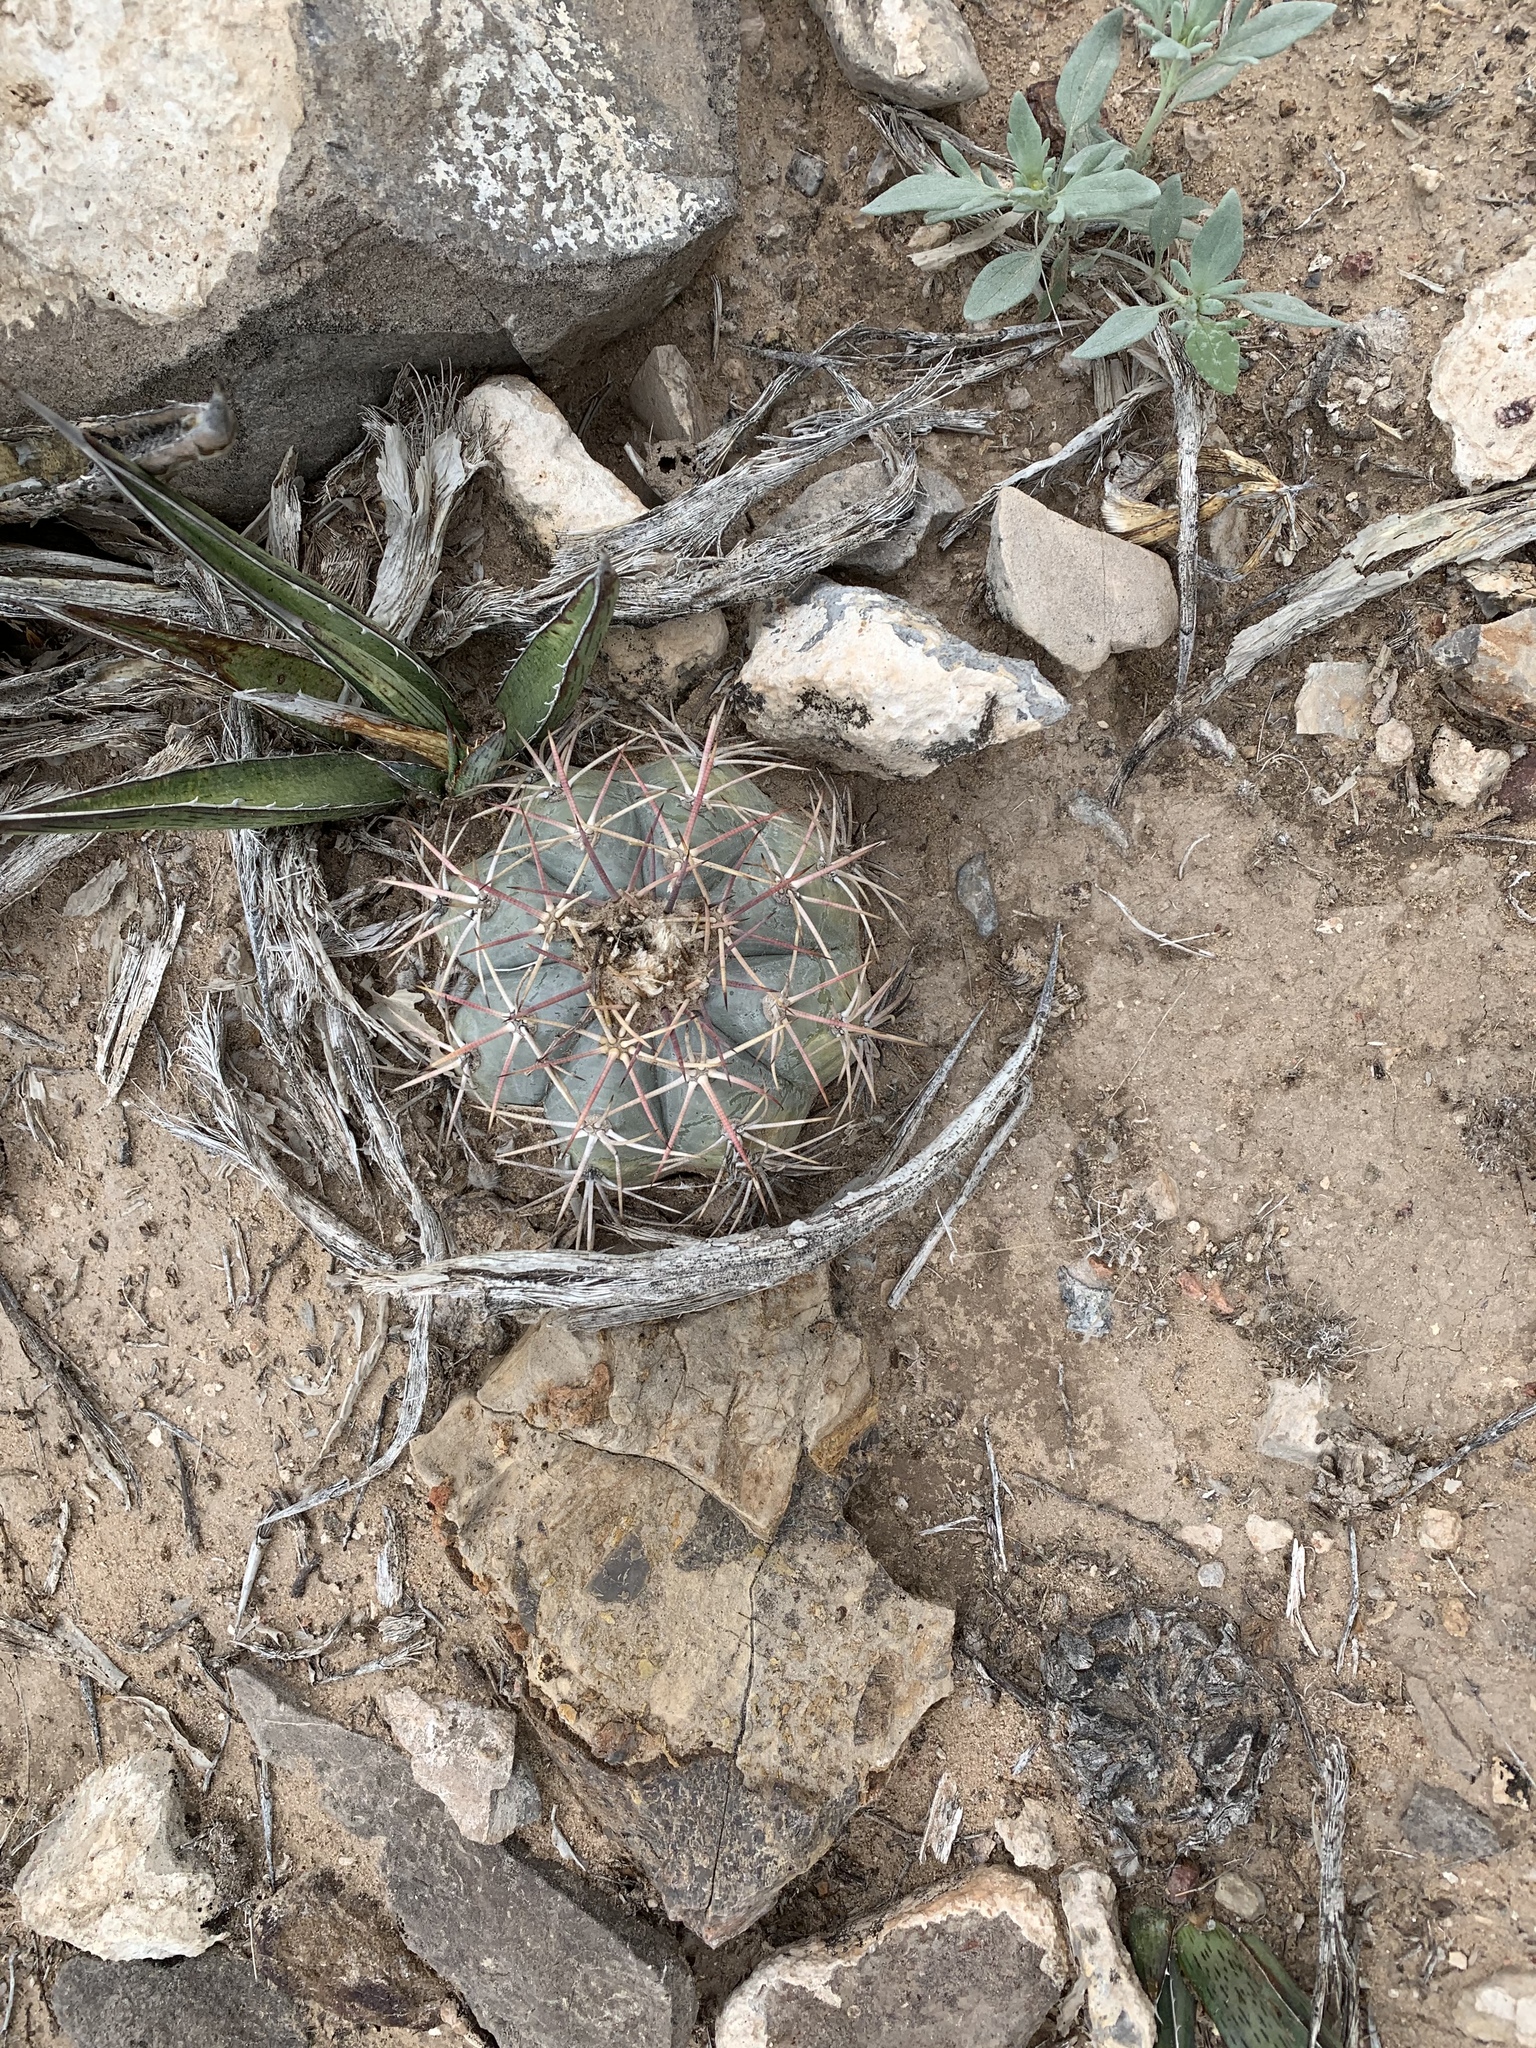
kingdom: Plantae
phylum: Tracheophyta
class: Magnoliopsida
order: Caryophyllales
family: Cactaceae
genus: Echinocactus
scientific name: Echinocactus horizonthalonius
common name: Devilshead
